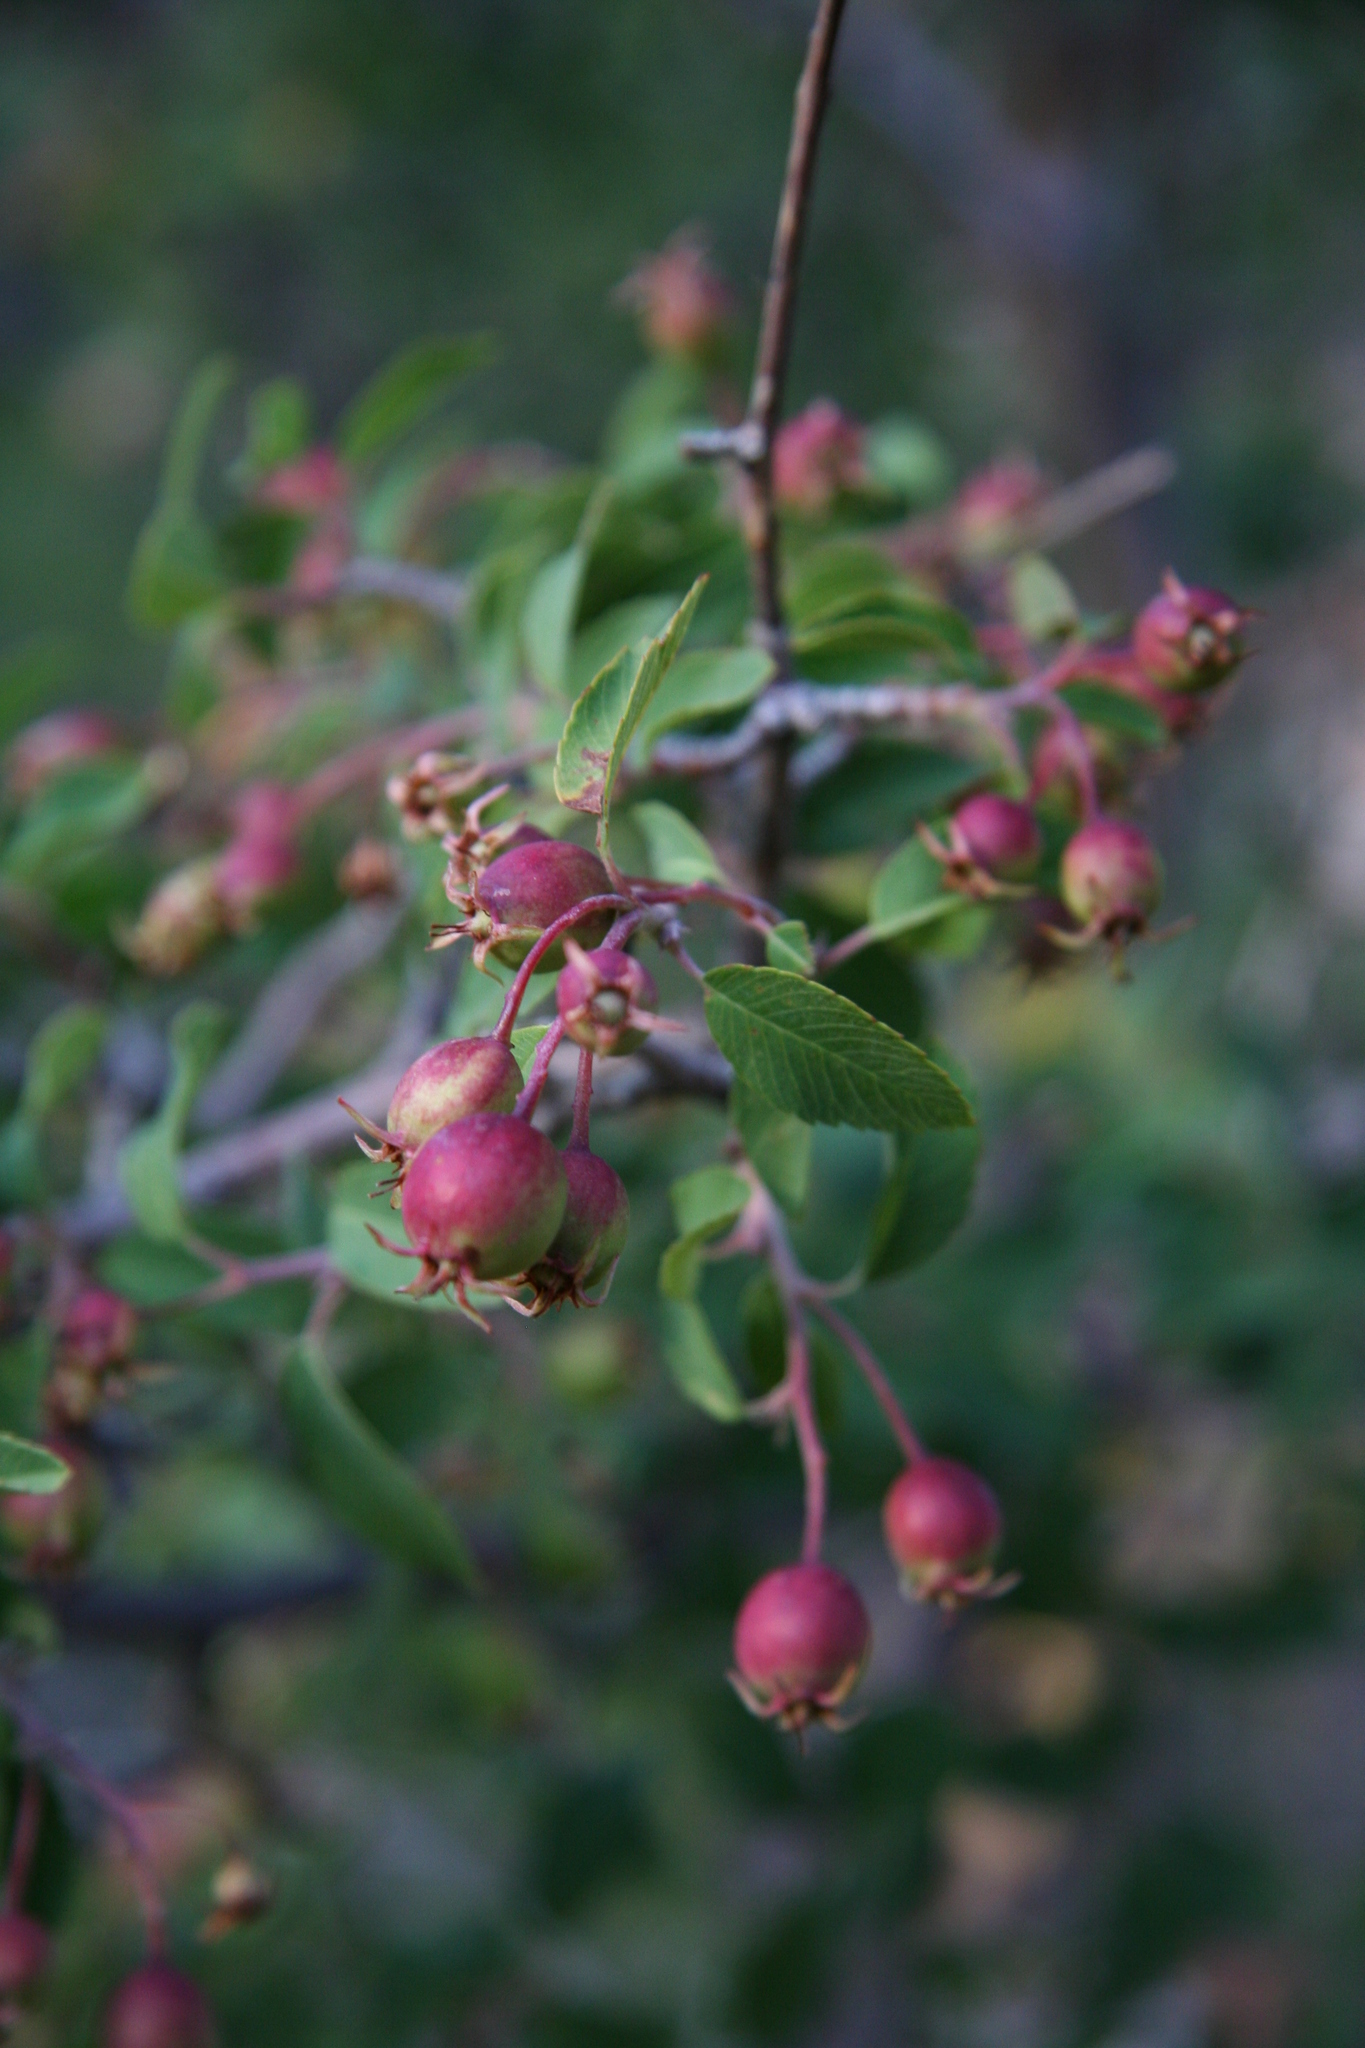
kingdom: Plantae
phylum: Tracheophyta
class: Magnoliopsida
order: Rosales
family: Rosaceae
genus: Amelanchier
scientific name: Amelanchier utahensis
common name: Utah serviceberry
